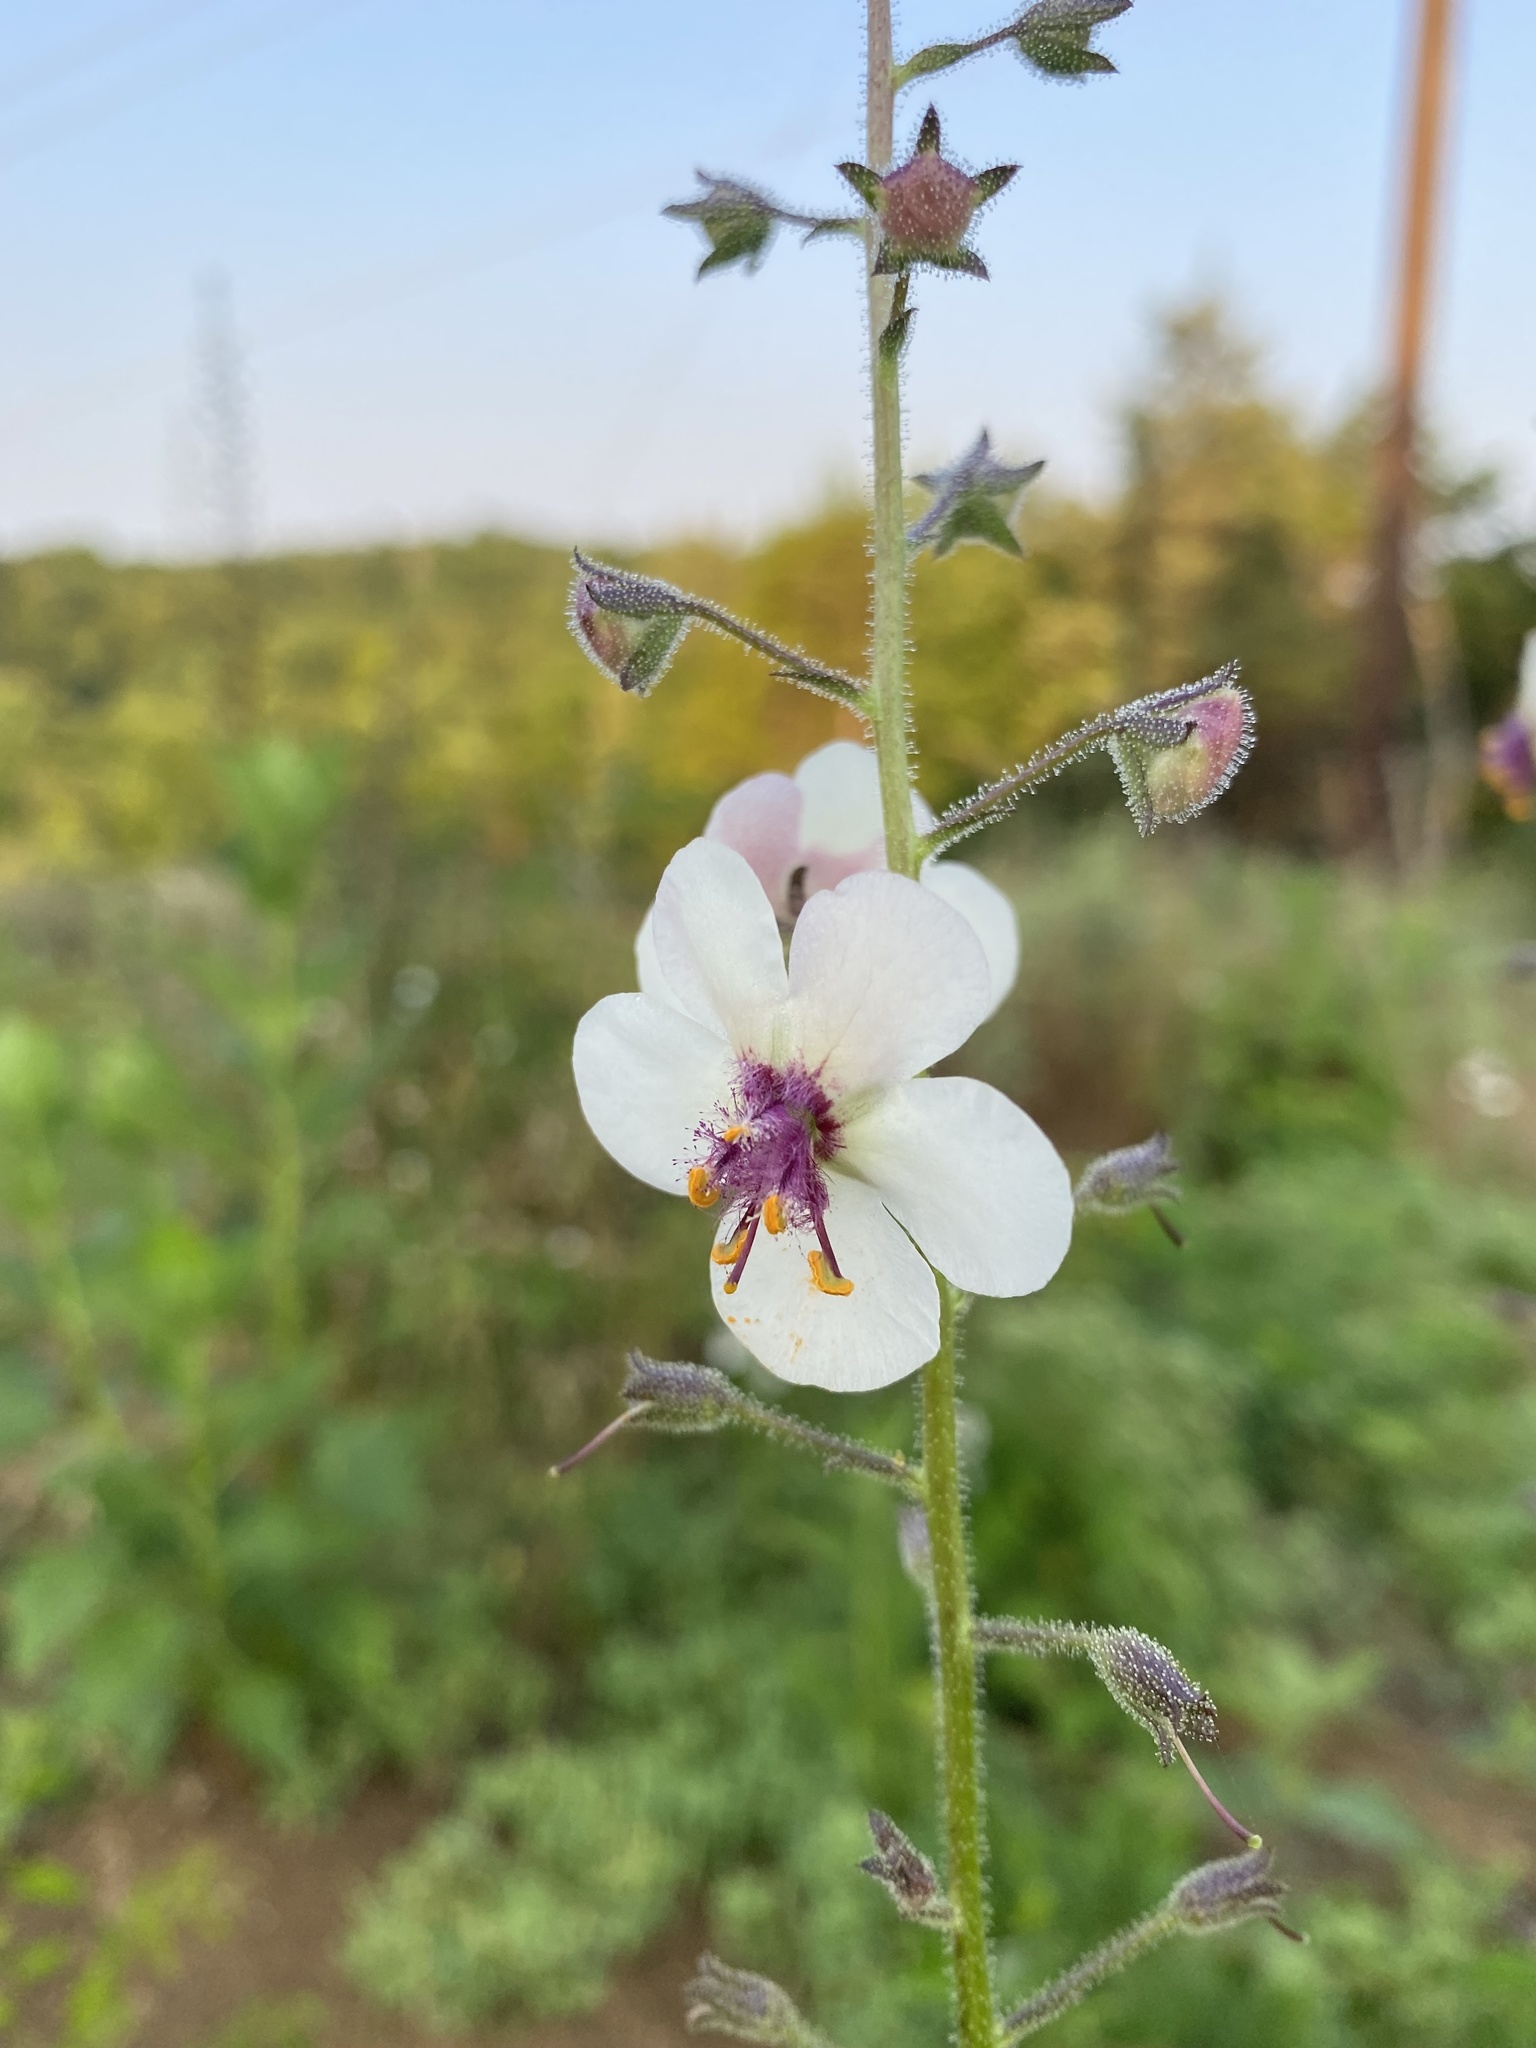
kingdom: Plantae
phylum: Tracheophyta
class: Magnoliopsida
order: Lamiales
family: Scrophulariaceae
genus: Verbascum
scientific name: Verbascum blattaria
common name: Moth mullein
